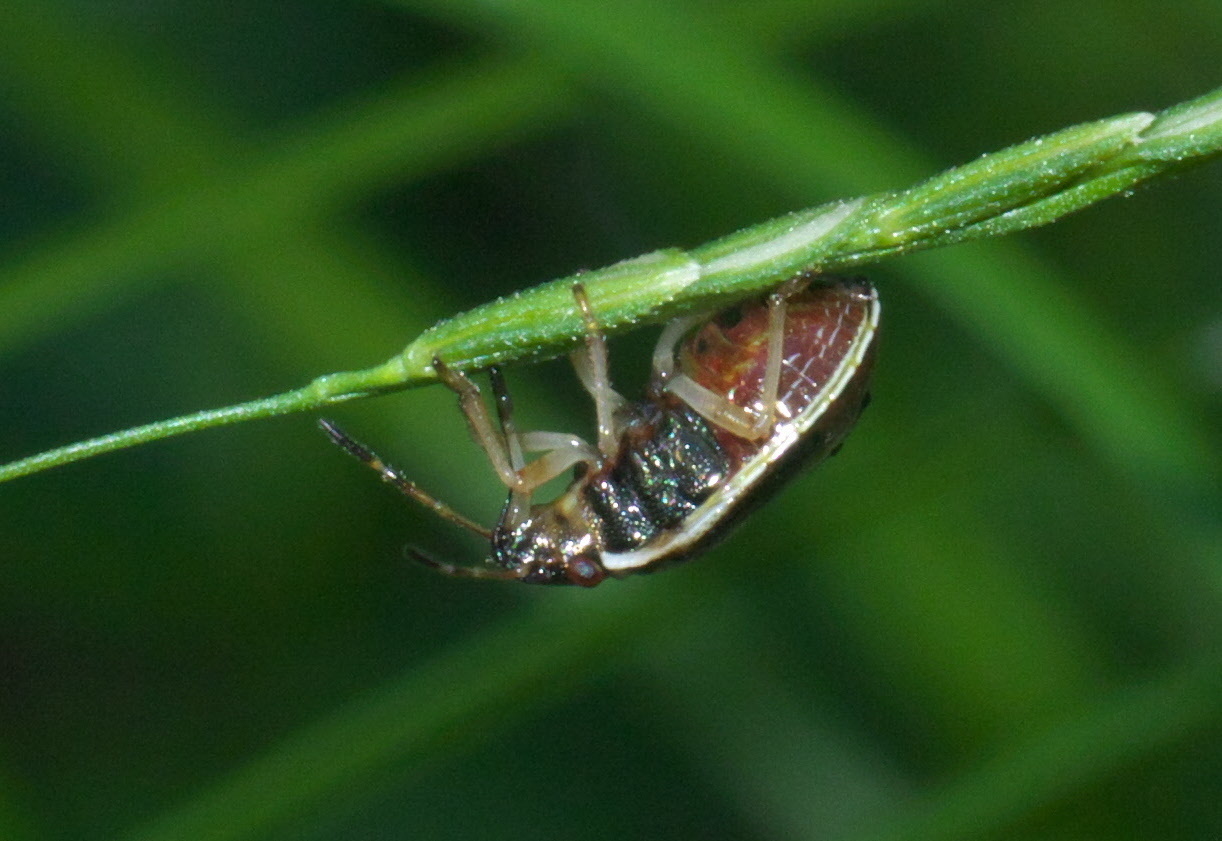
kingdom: Animalia
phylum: Arthropoda
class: Insecta
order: Hemiptera
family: Pentatomidae
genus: Mormidea
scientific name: Mormidea lugens
